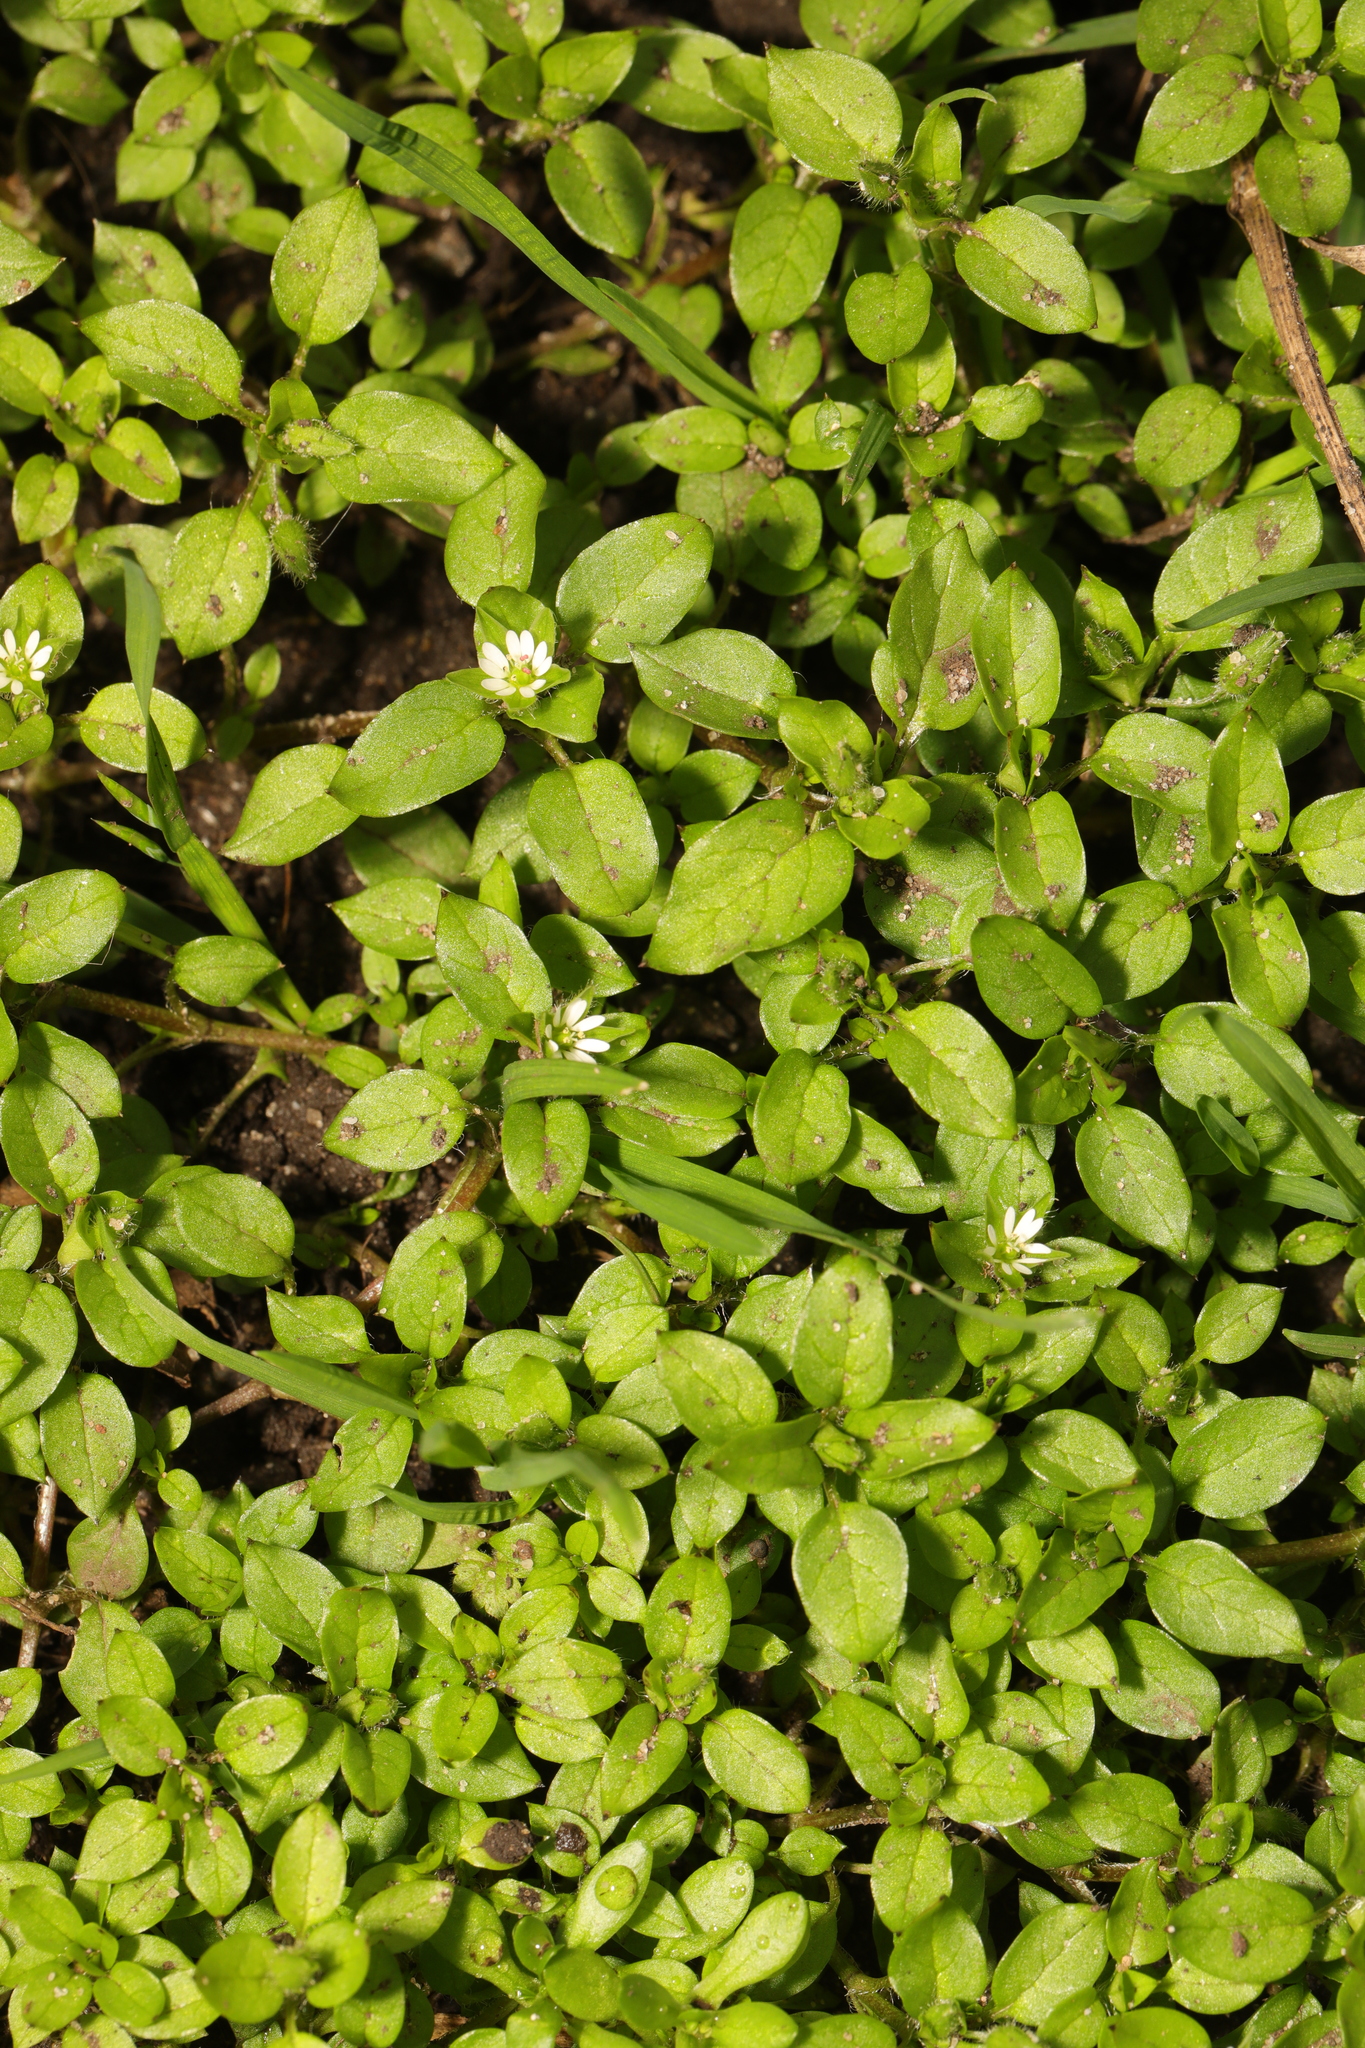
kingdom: Plantae
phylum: Tracheophyta
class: Magnoliopsida
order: Caryophyllales
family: Caryophyllaceae
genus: Stellaria
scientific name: Stellaria media
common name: Common chickweed
